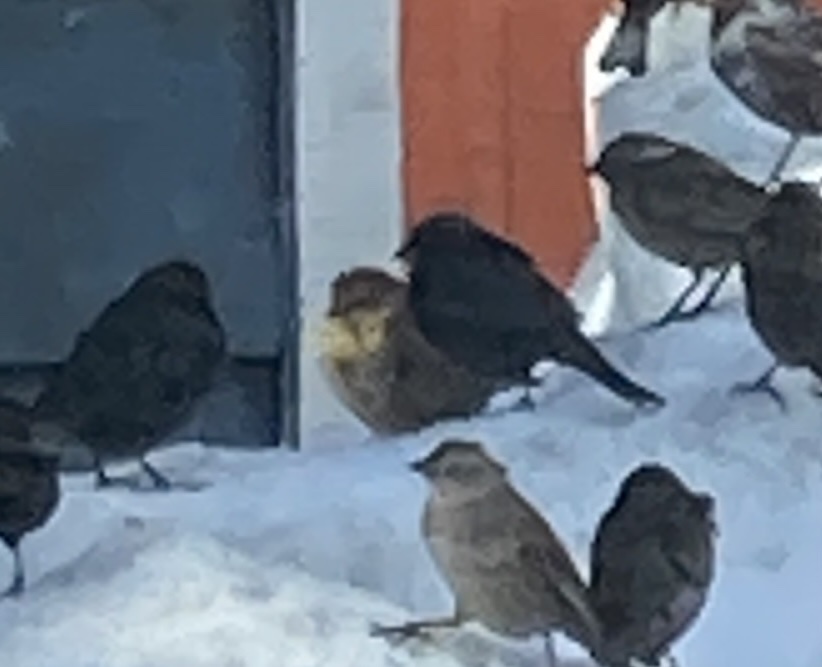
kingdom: Animalia
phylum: Chordata
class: Aves
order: Passeriformes
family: Icteridae
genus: Xanthocephalus
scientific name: Xanthocephalus xanthocephalus
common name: Yellow-headed blackbird
